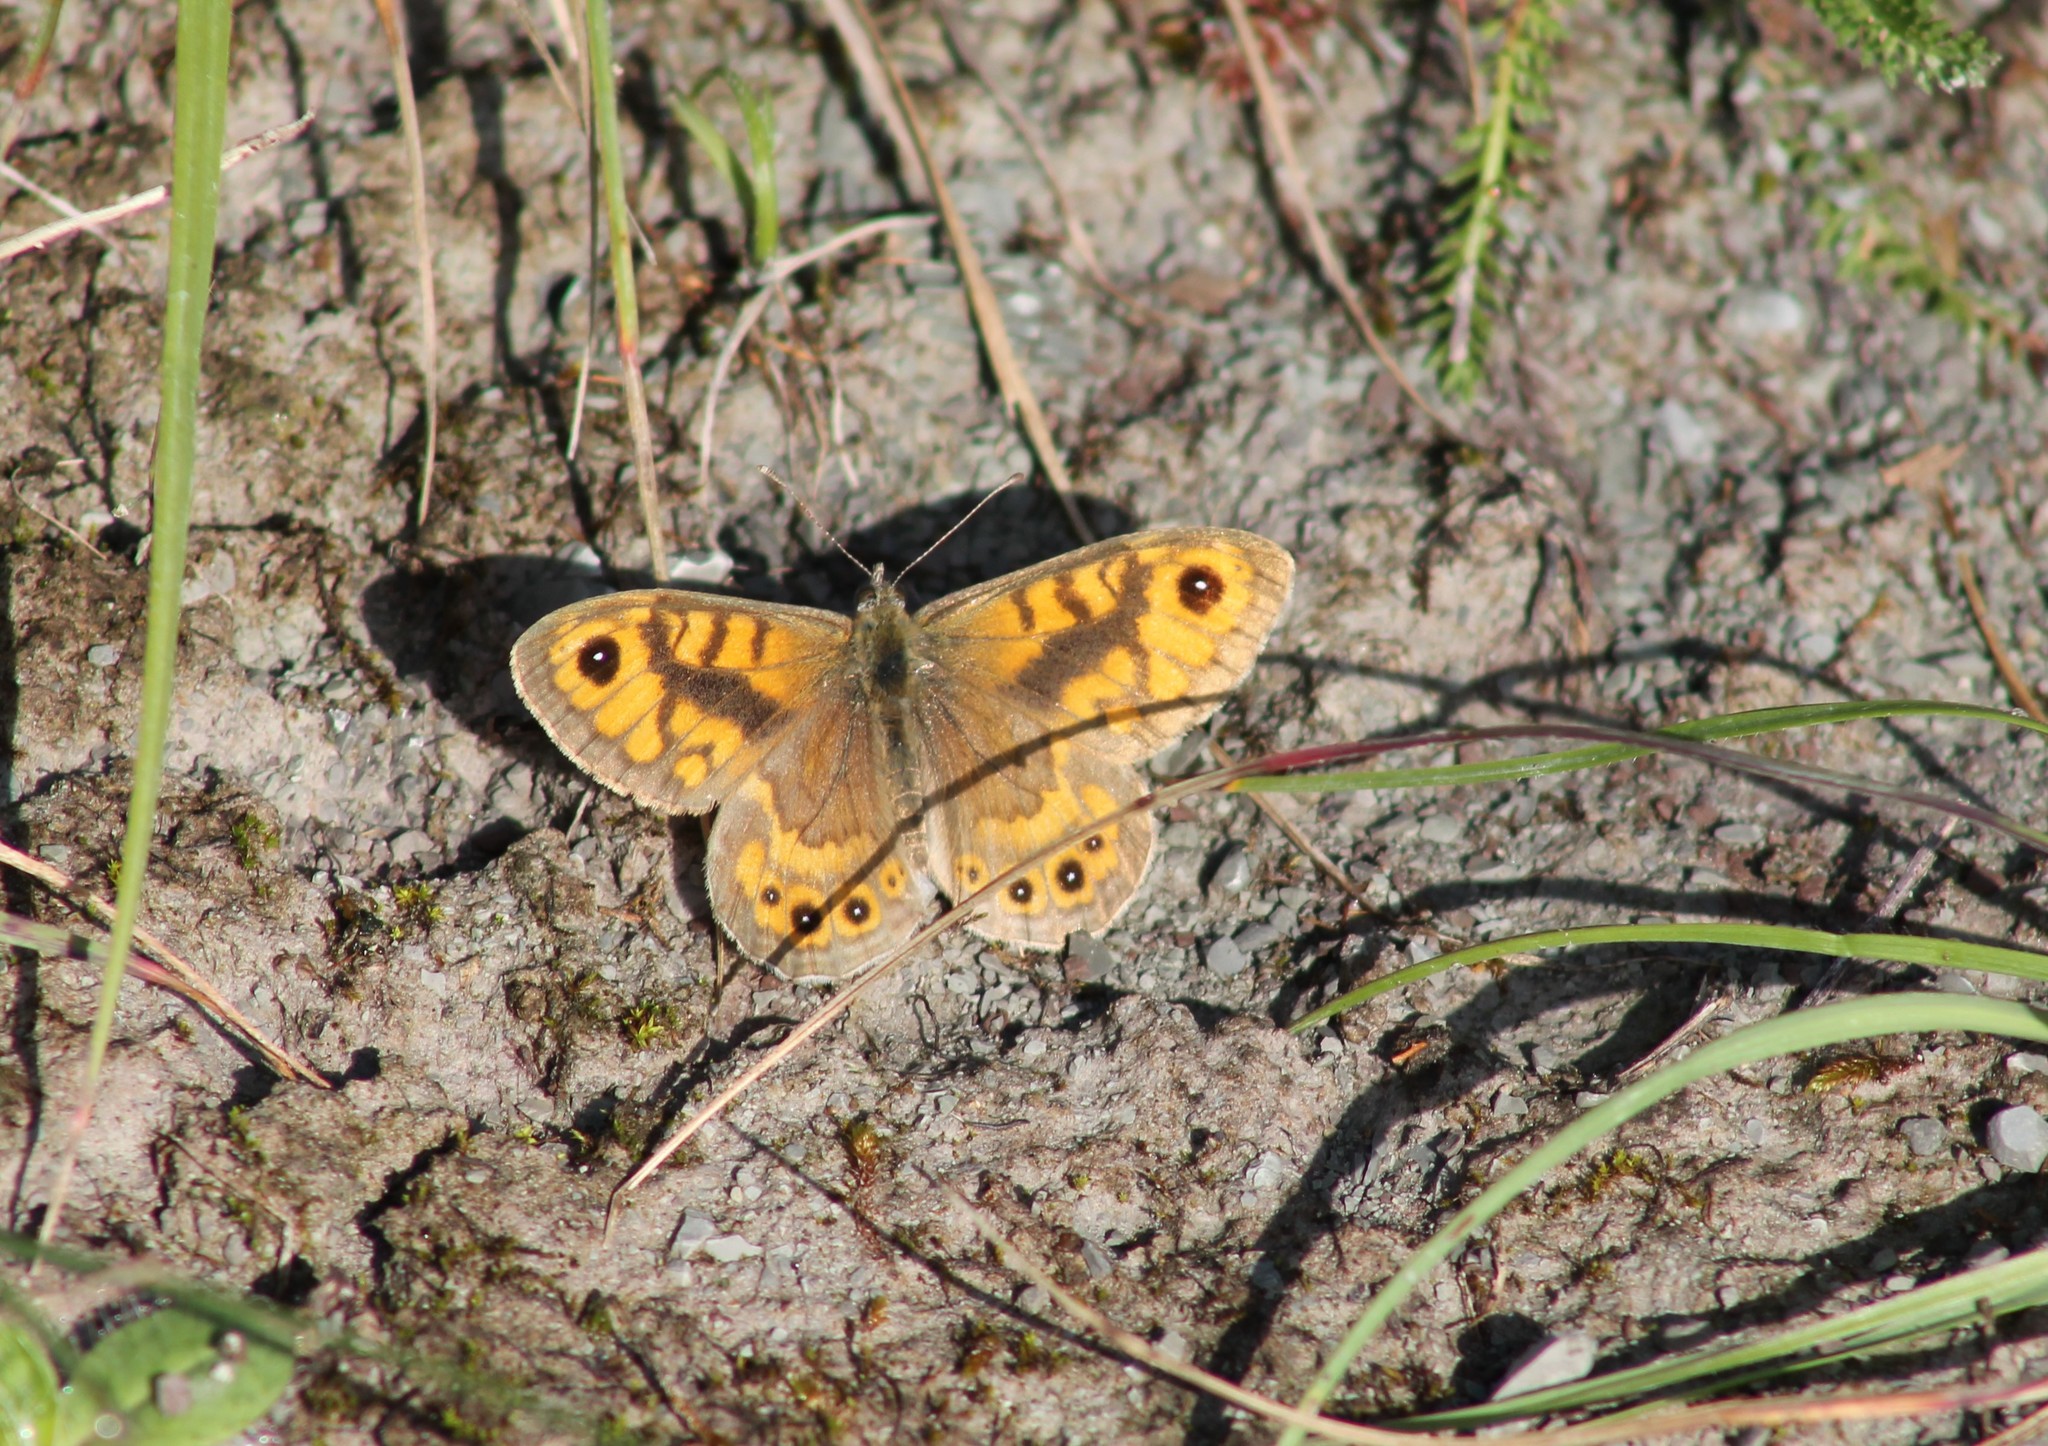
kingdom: Animalia
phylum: Arthropoda
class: Insecta
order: Lepidoptera
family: Nymphalidae
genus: Pararge
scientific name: Pararge Lasiommata megera
